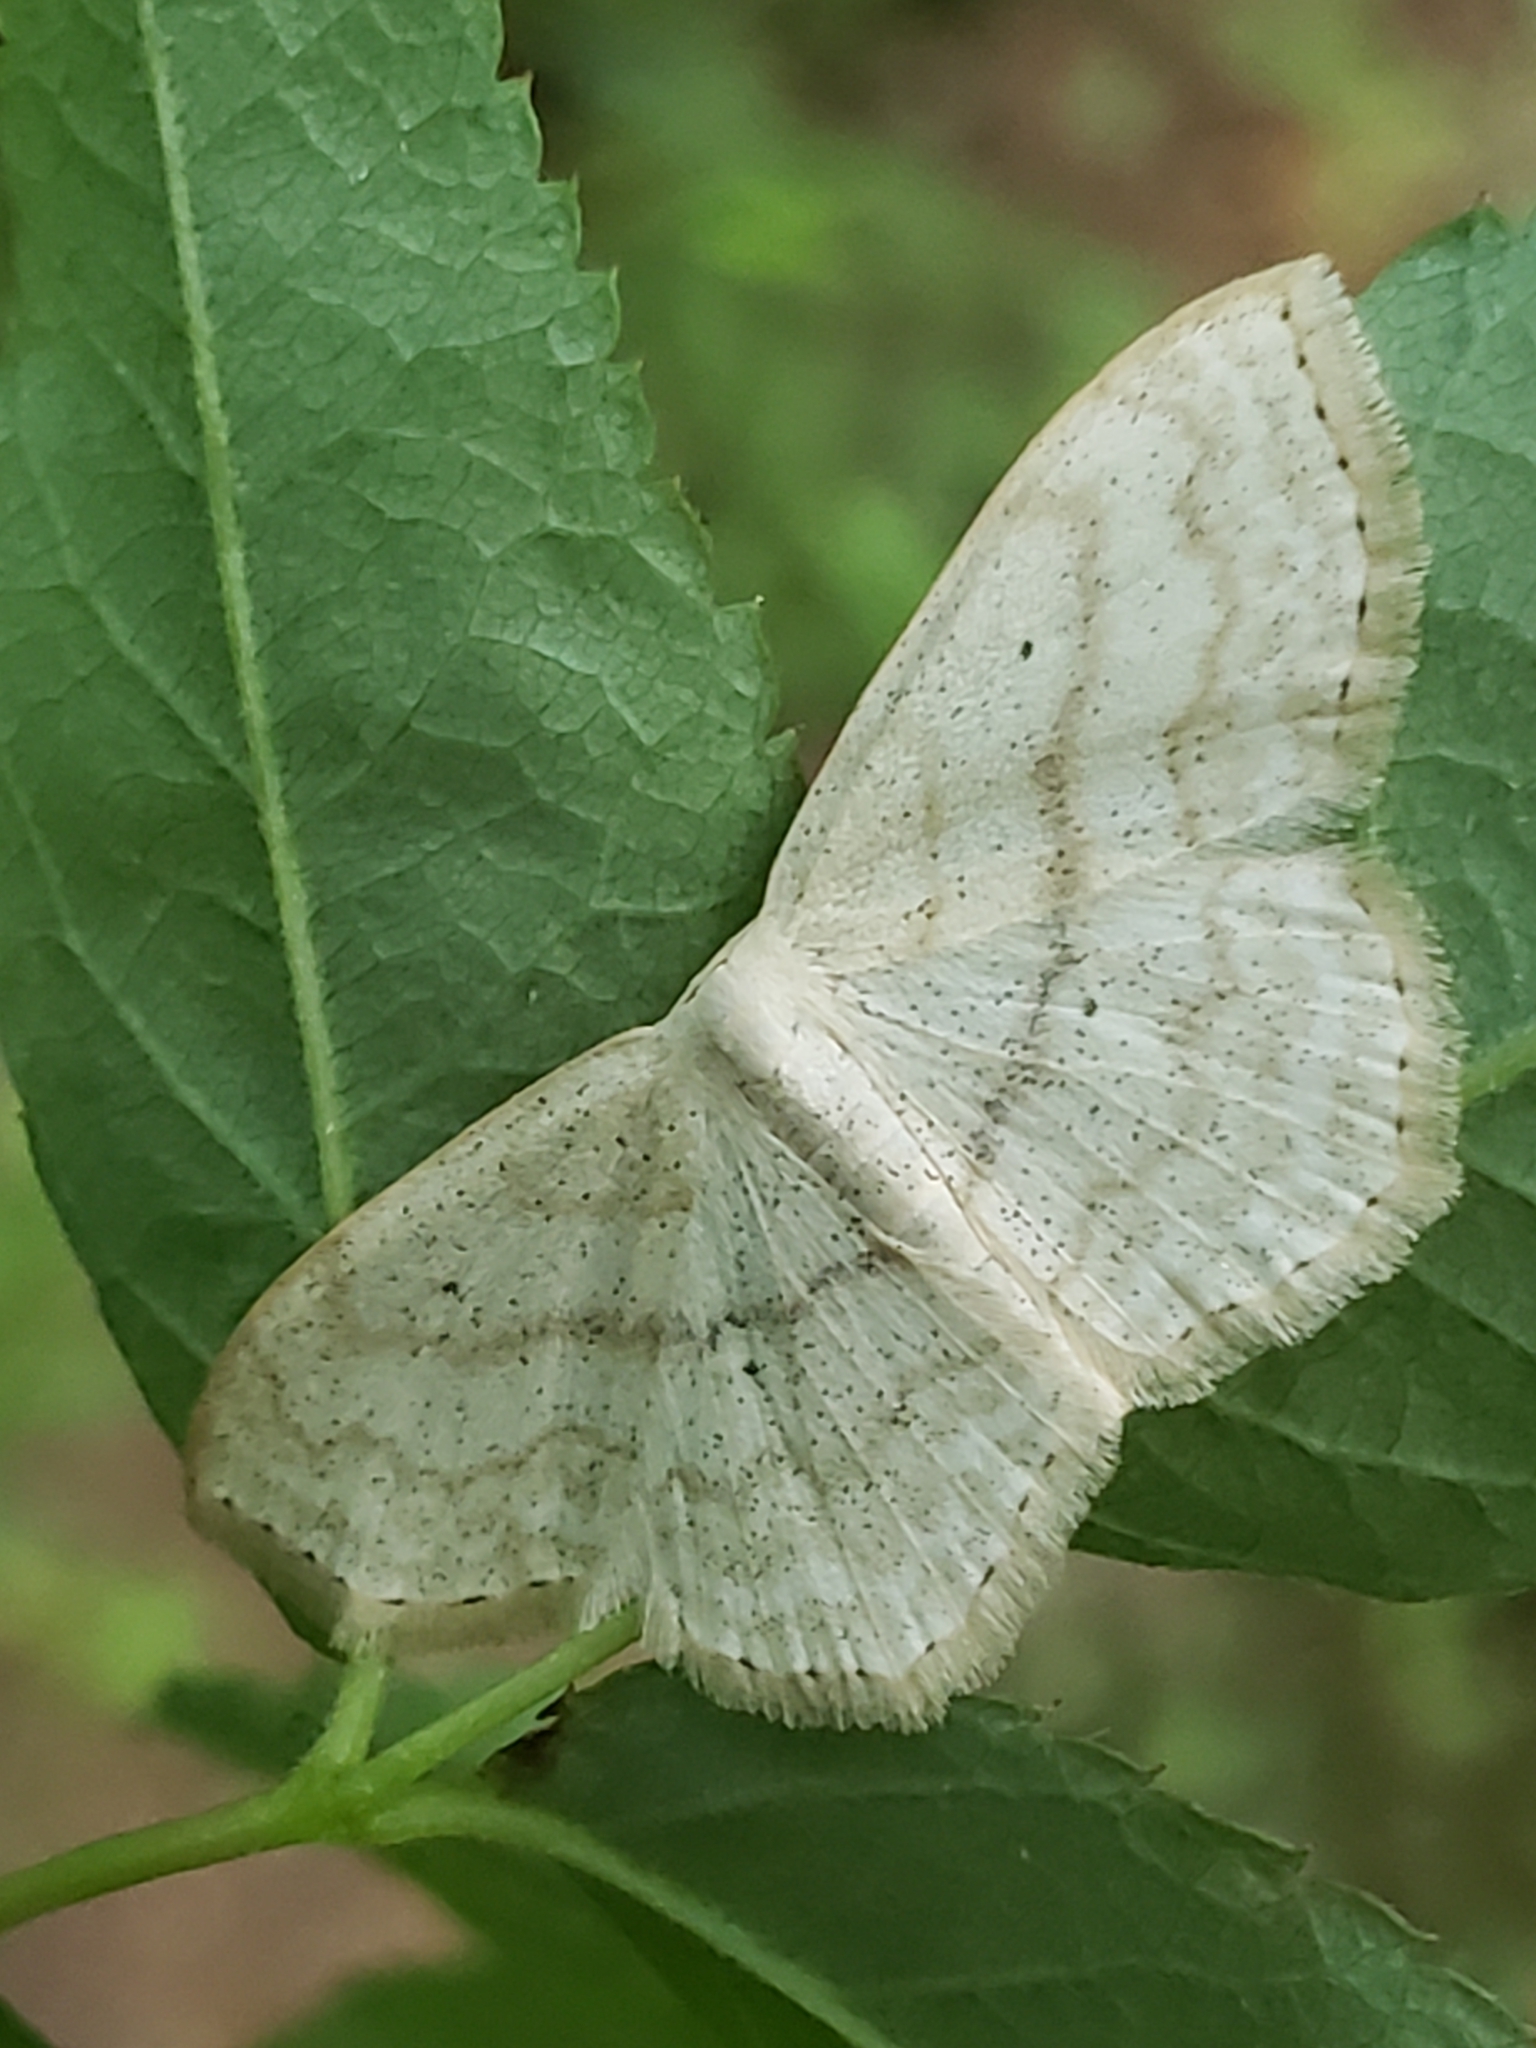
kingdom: Animalia
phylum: Arthropoda
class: Insecta
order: Lepidoptera
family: Geometridae
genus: Scopula
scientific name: Scopula limboundata
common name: Large lace border
